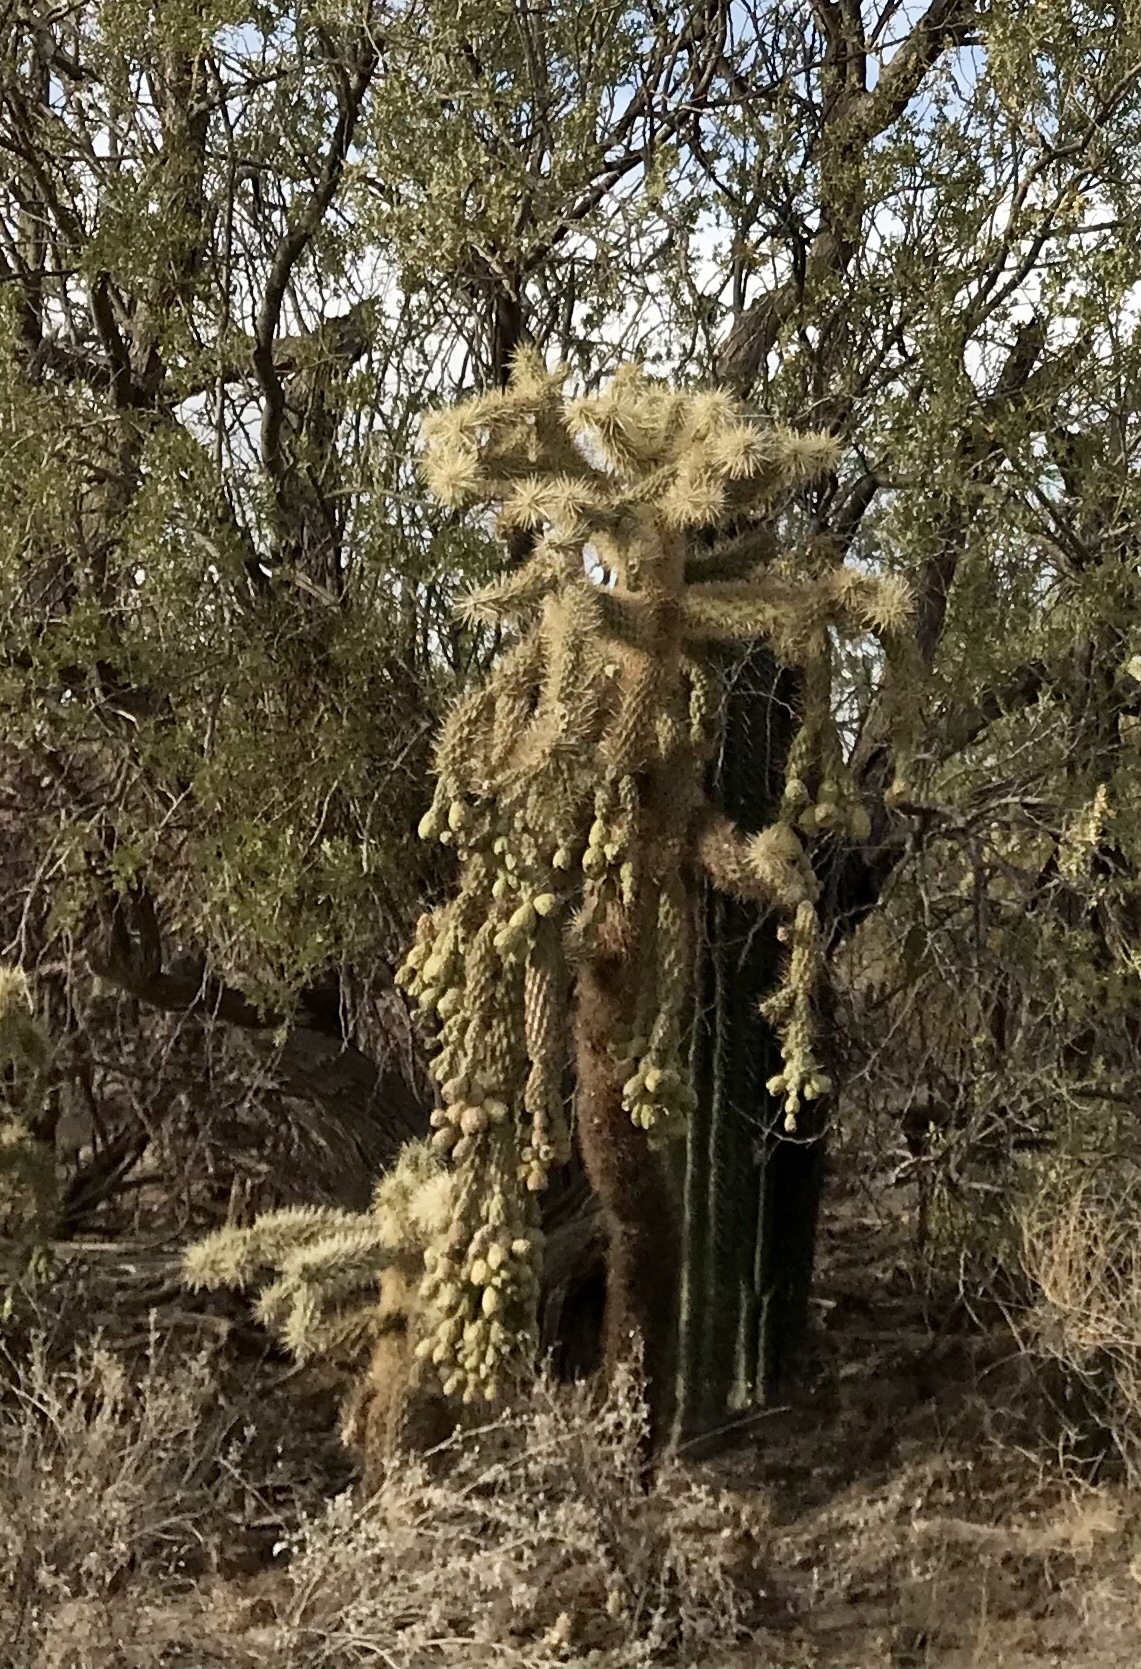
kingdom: Plantae
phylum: Tracheophyta
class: Magnoliopsida
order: Caryophyllales
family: Cactaceae
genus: Cylindropuntia
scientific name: Cylindropuntia fulgida
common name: Jumping cholla
